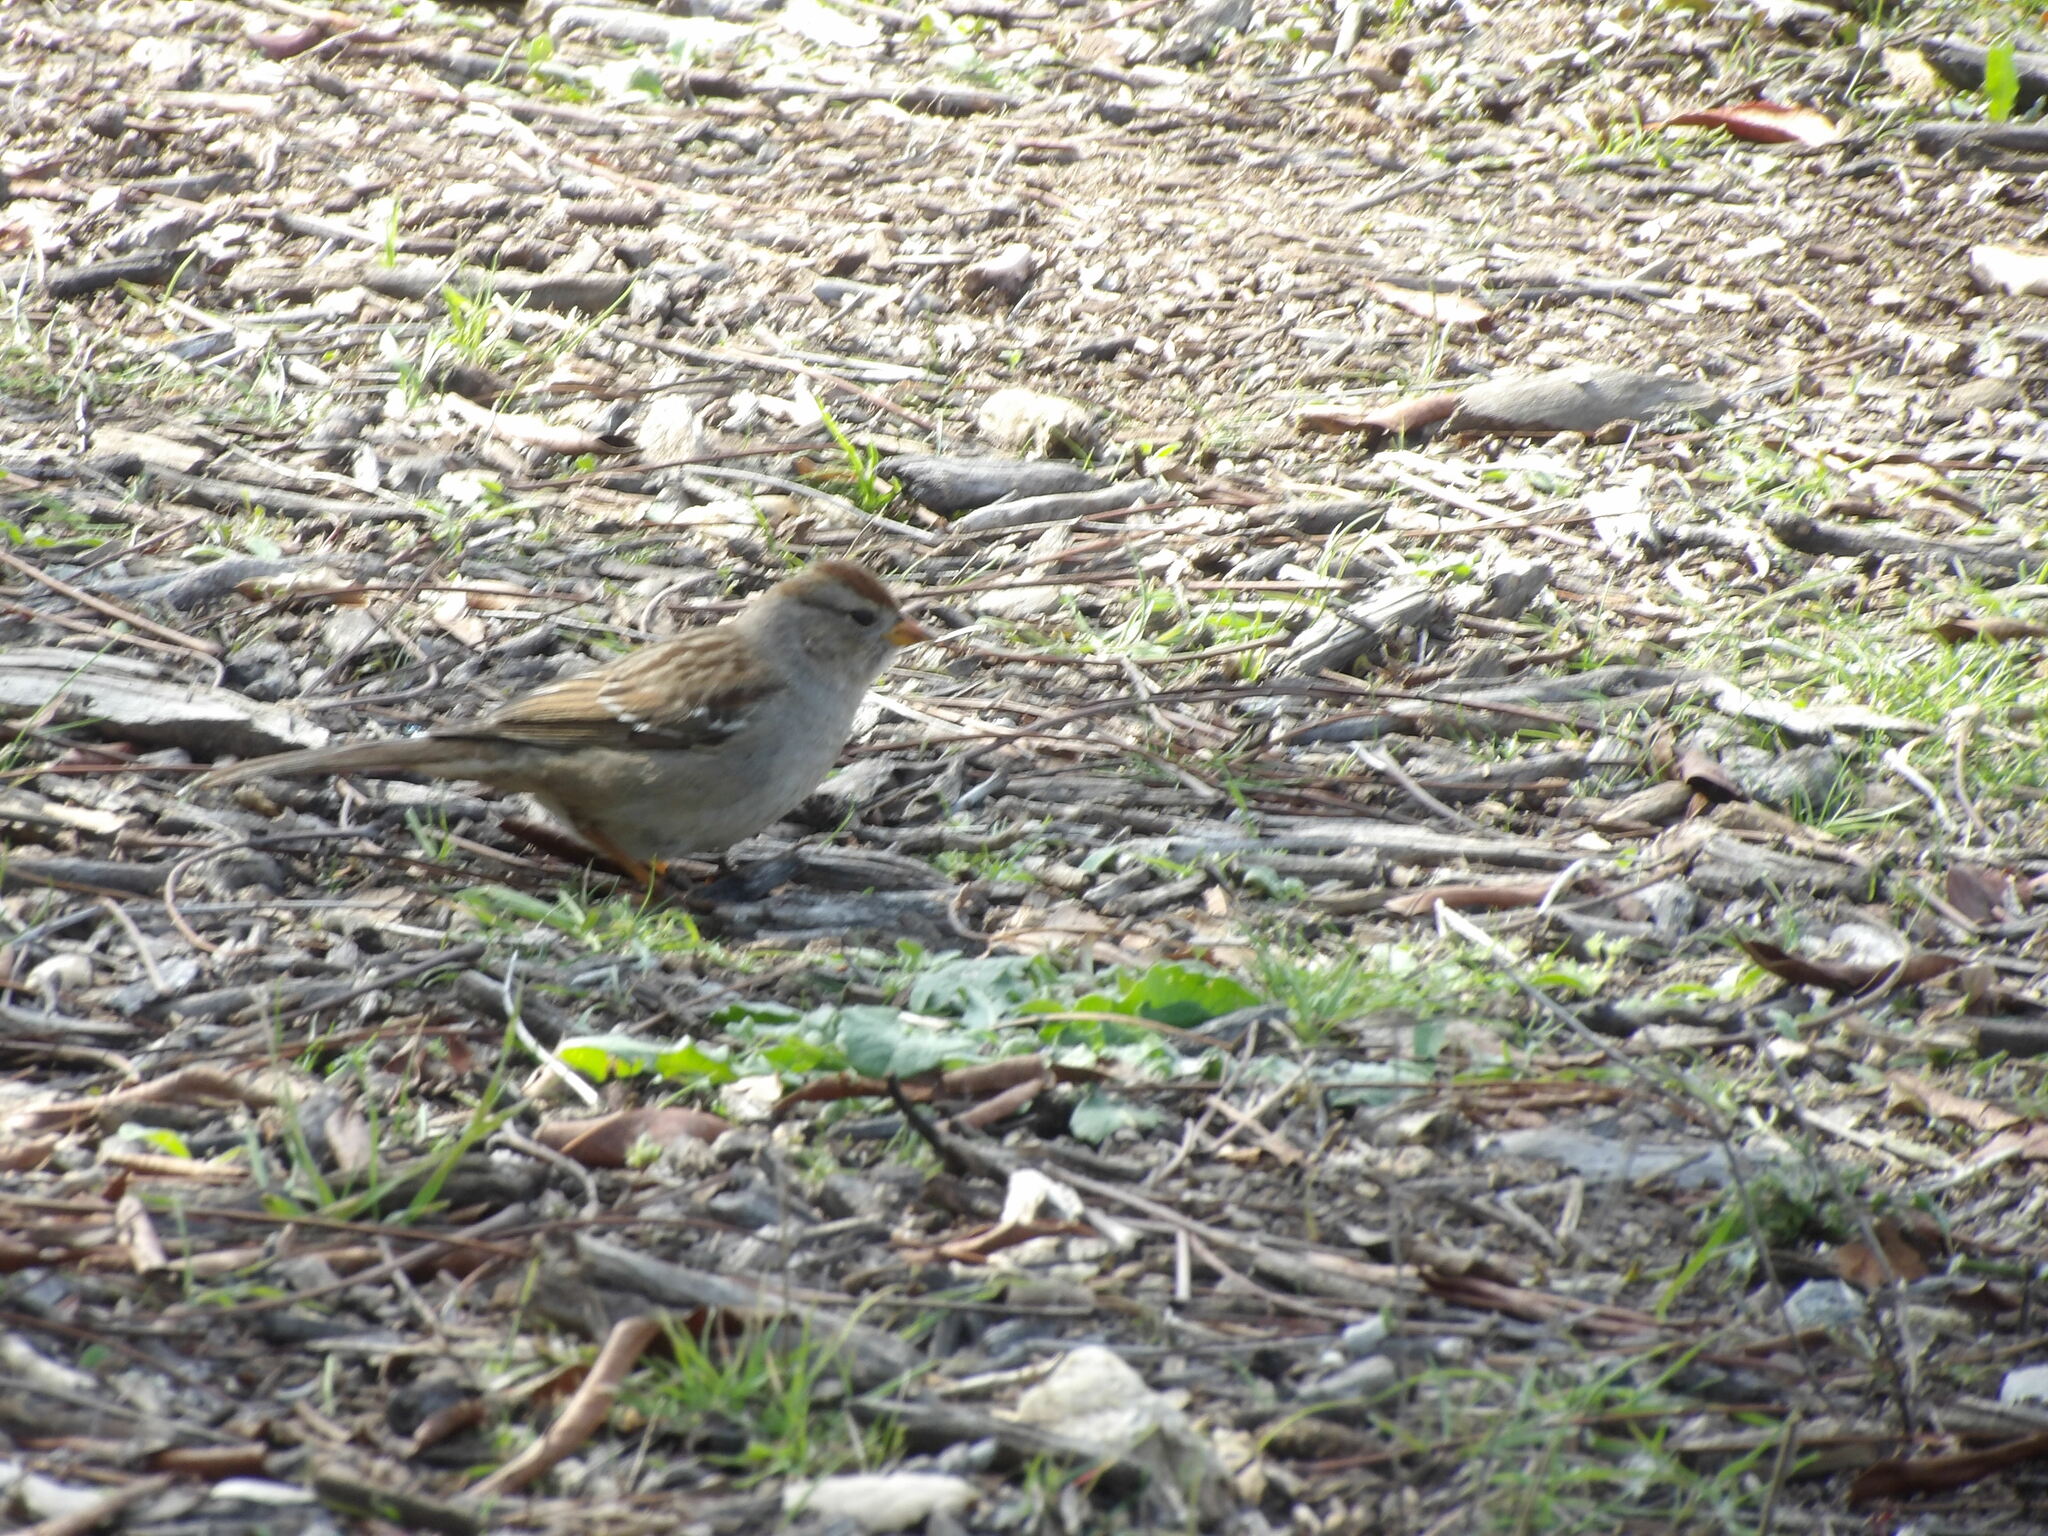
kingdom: Animalia
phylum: Chordata
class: Aves
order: Passeriformes
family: Passerellidae
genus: Zonotrichia
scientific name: Zonotrichia leucophrys
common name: White-crowned sparrow
